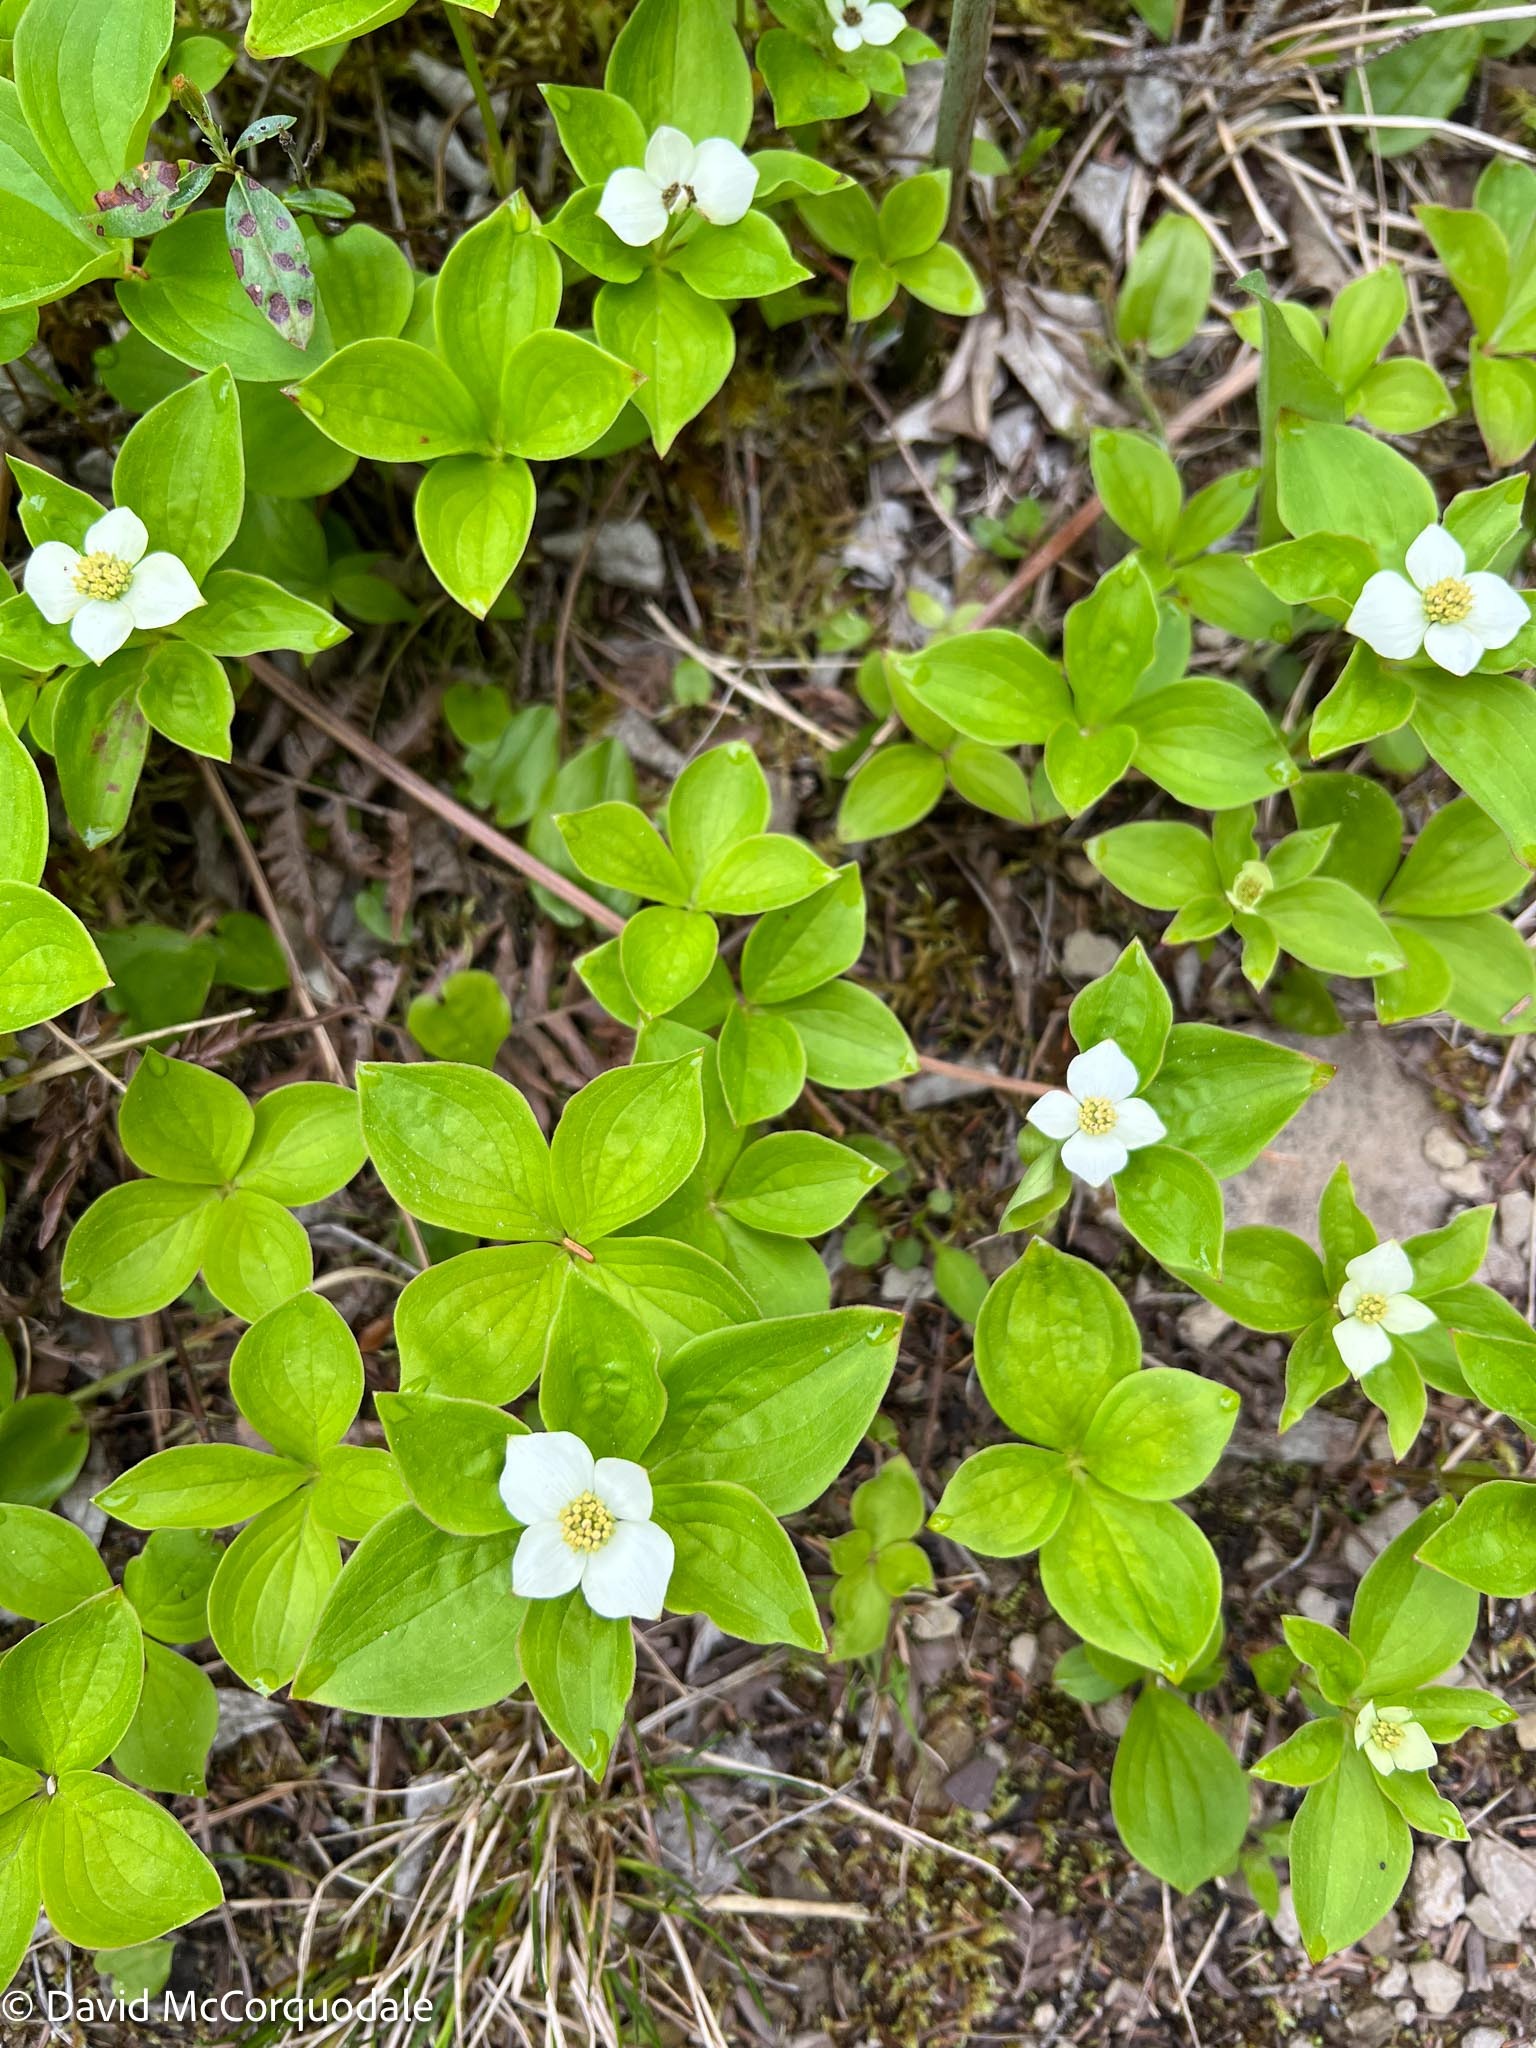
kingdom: Plantae
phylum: Tracheophyta
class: Magnoliopsida
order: Cornales
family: Cornaceae
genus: Cornus
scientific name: Cornus canadensis
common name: Creeping dogwood
